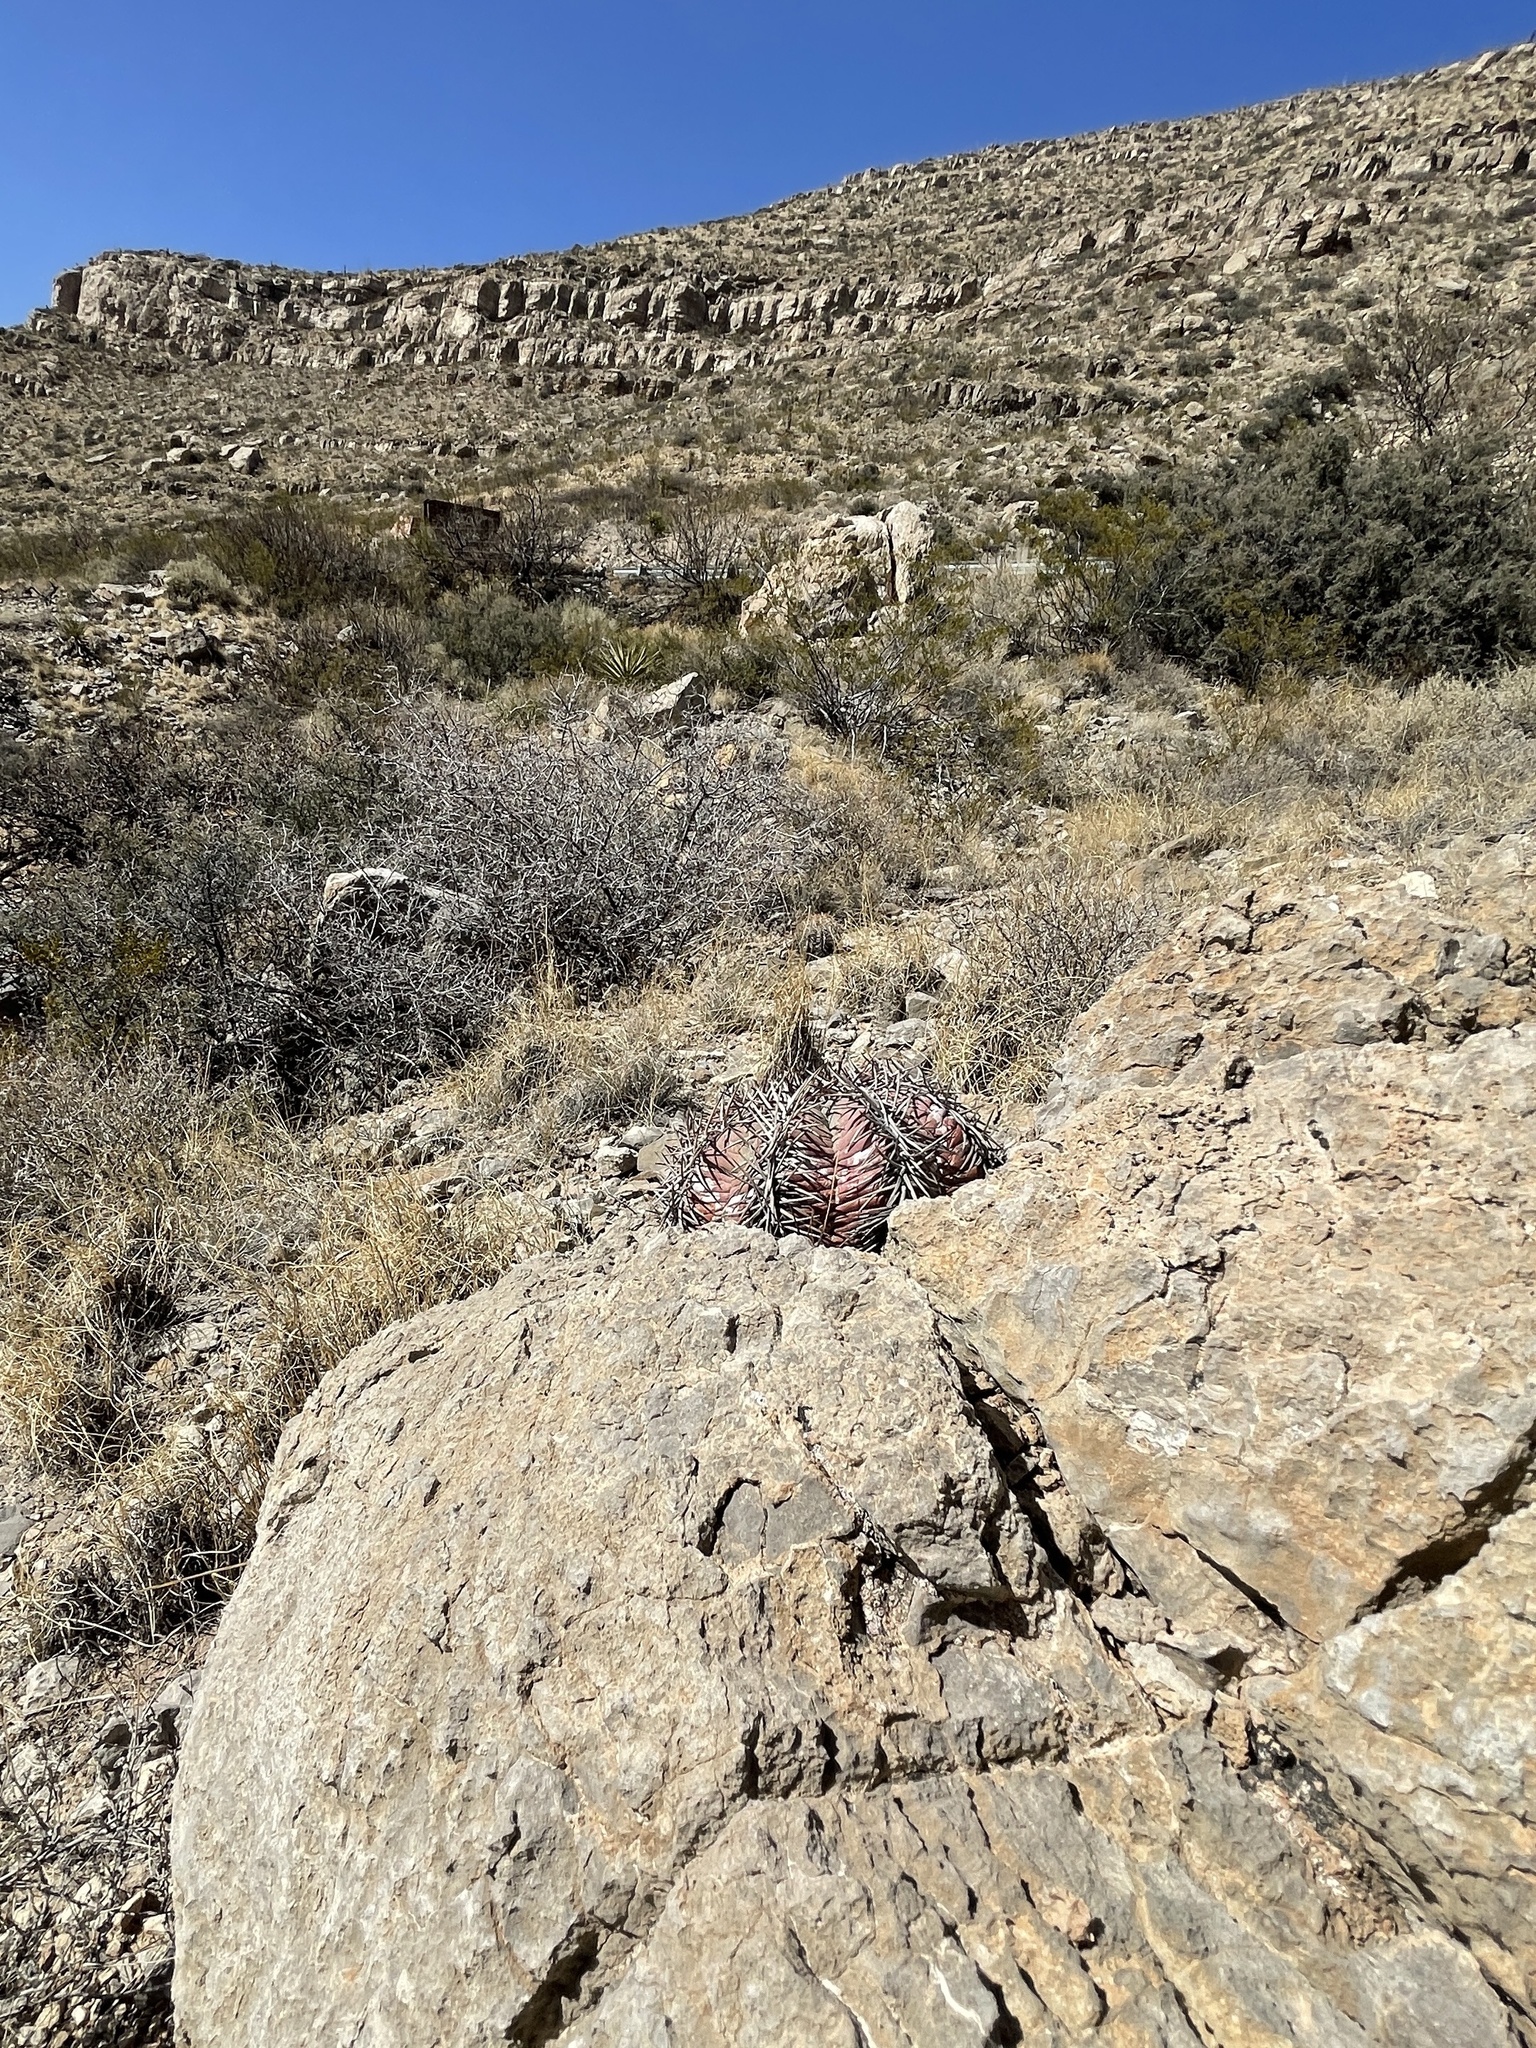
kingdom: Plantae
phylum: Tracheophyta
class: Magnoliopsida
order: Caryophyllales
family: Cactaceae
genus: Echinocactus
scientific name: Echinocactus horizonthalonius
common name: Devilshead
